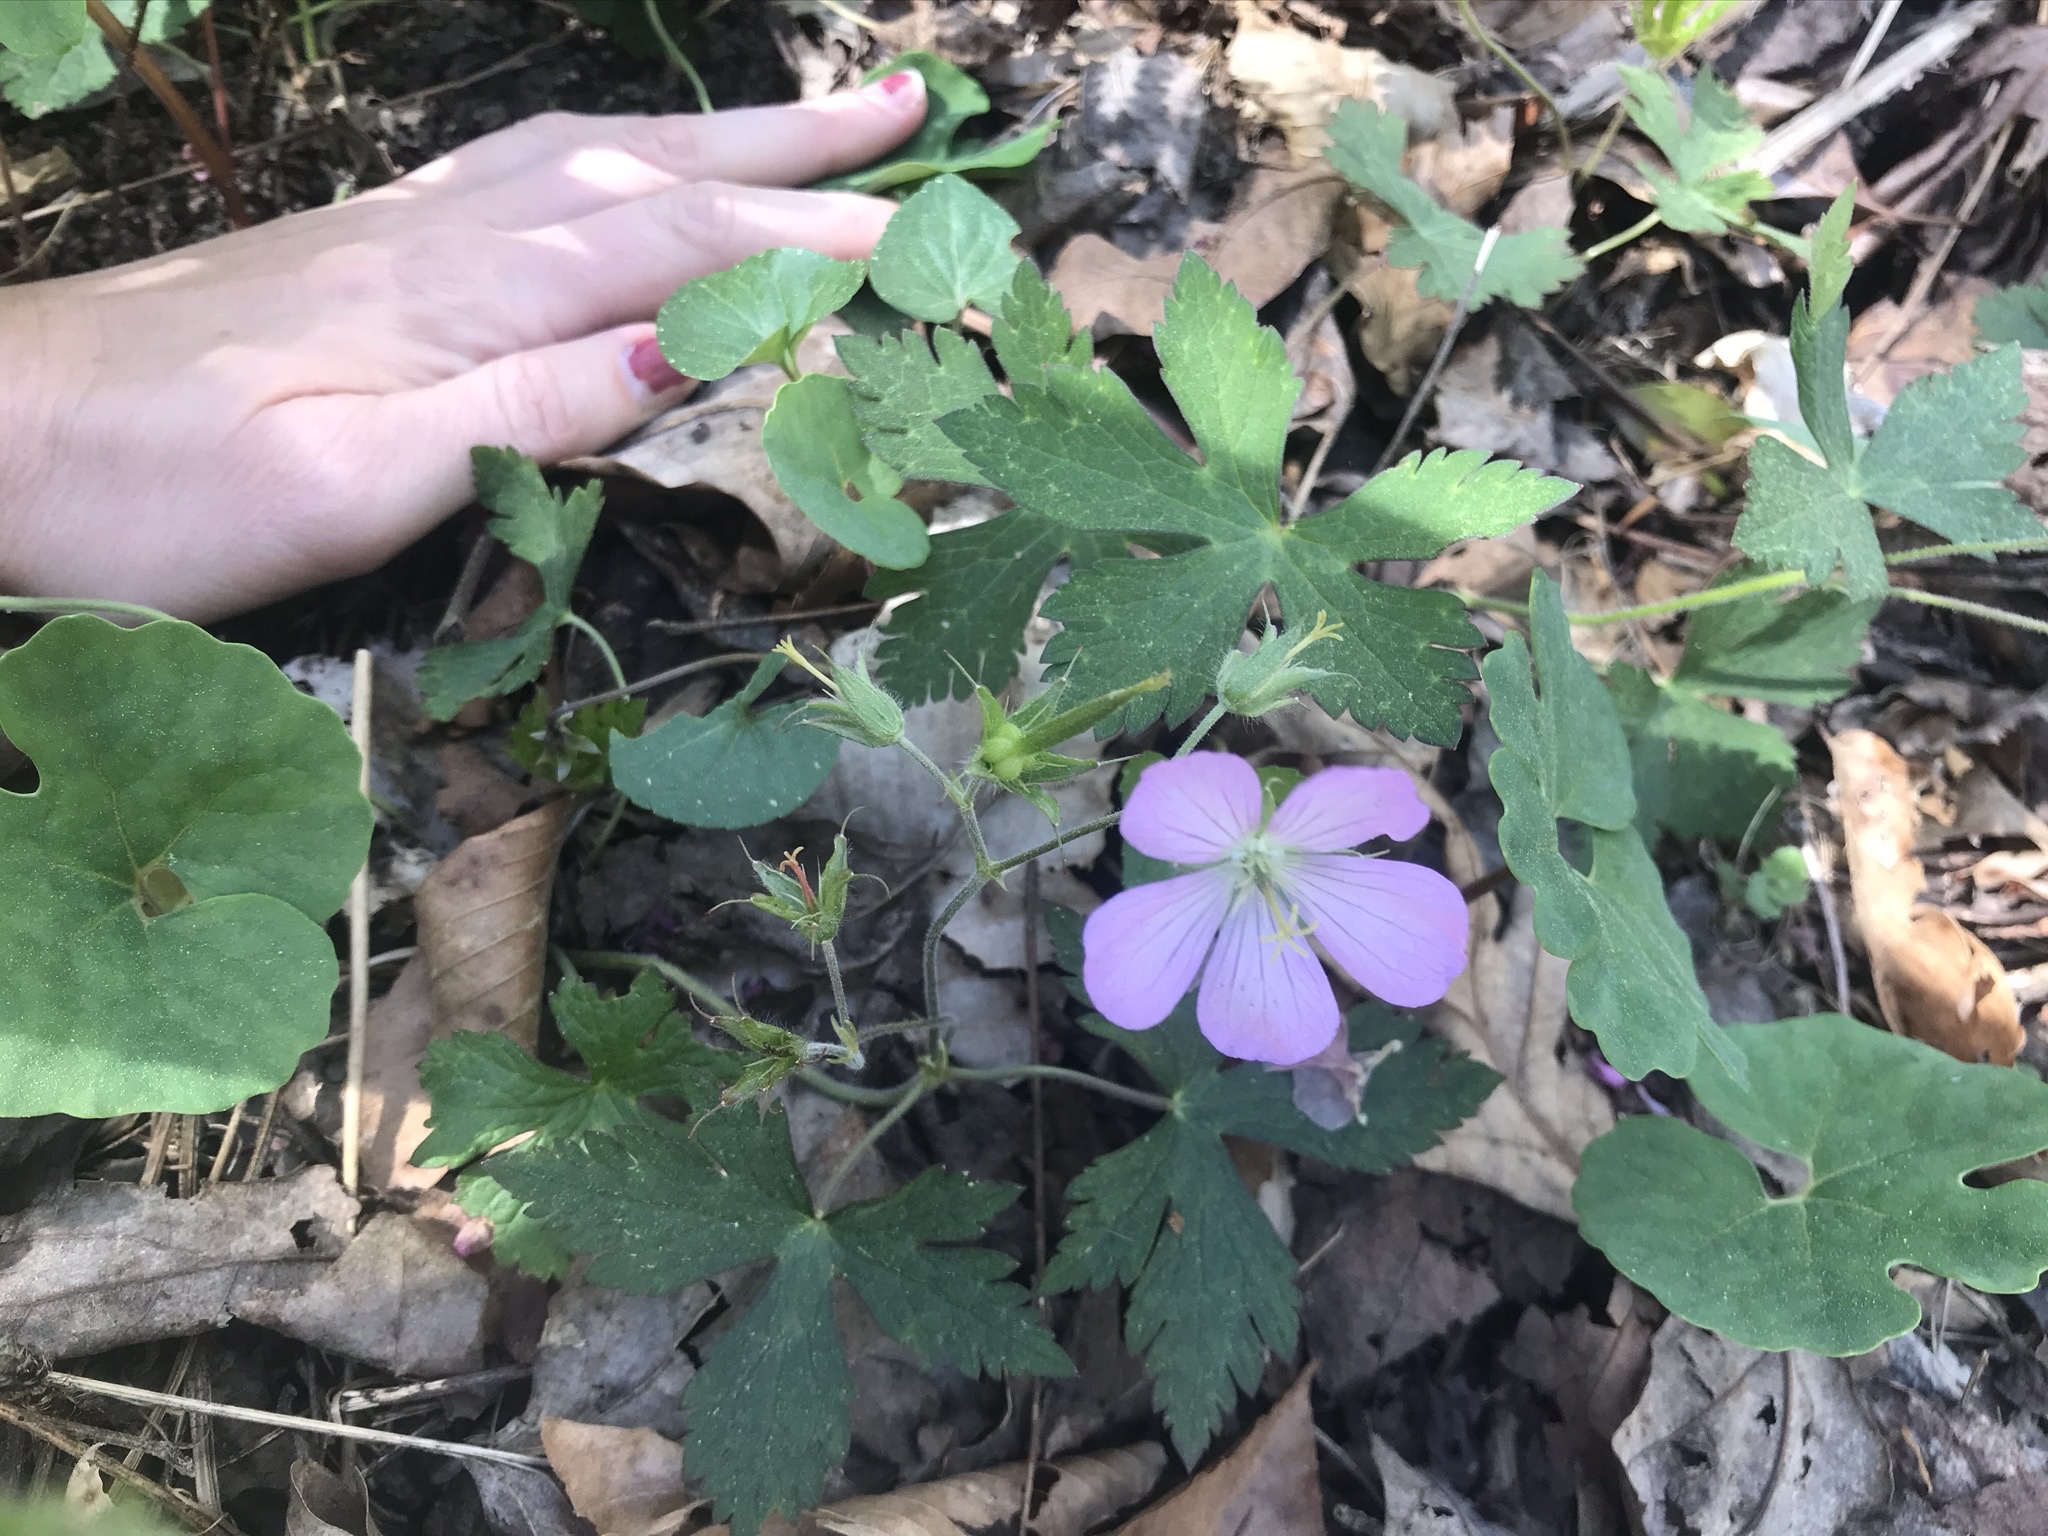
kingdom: Plantae
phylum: Tracheophyta
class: Magnoliopsida
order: Geraniales
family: Geraniaceae
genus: Geranium
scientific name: Geranium maculatum
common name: Spotted geranium
